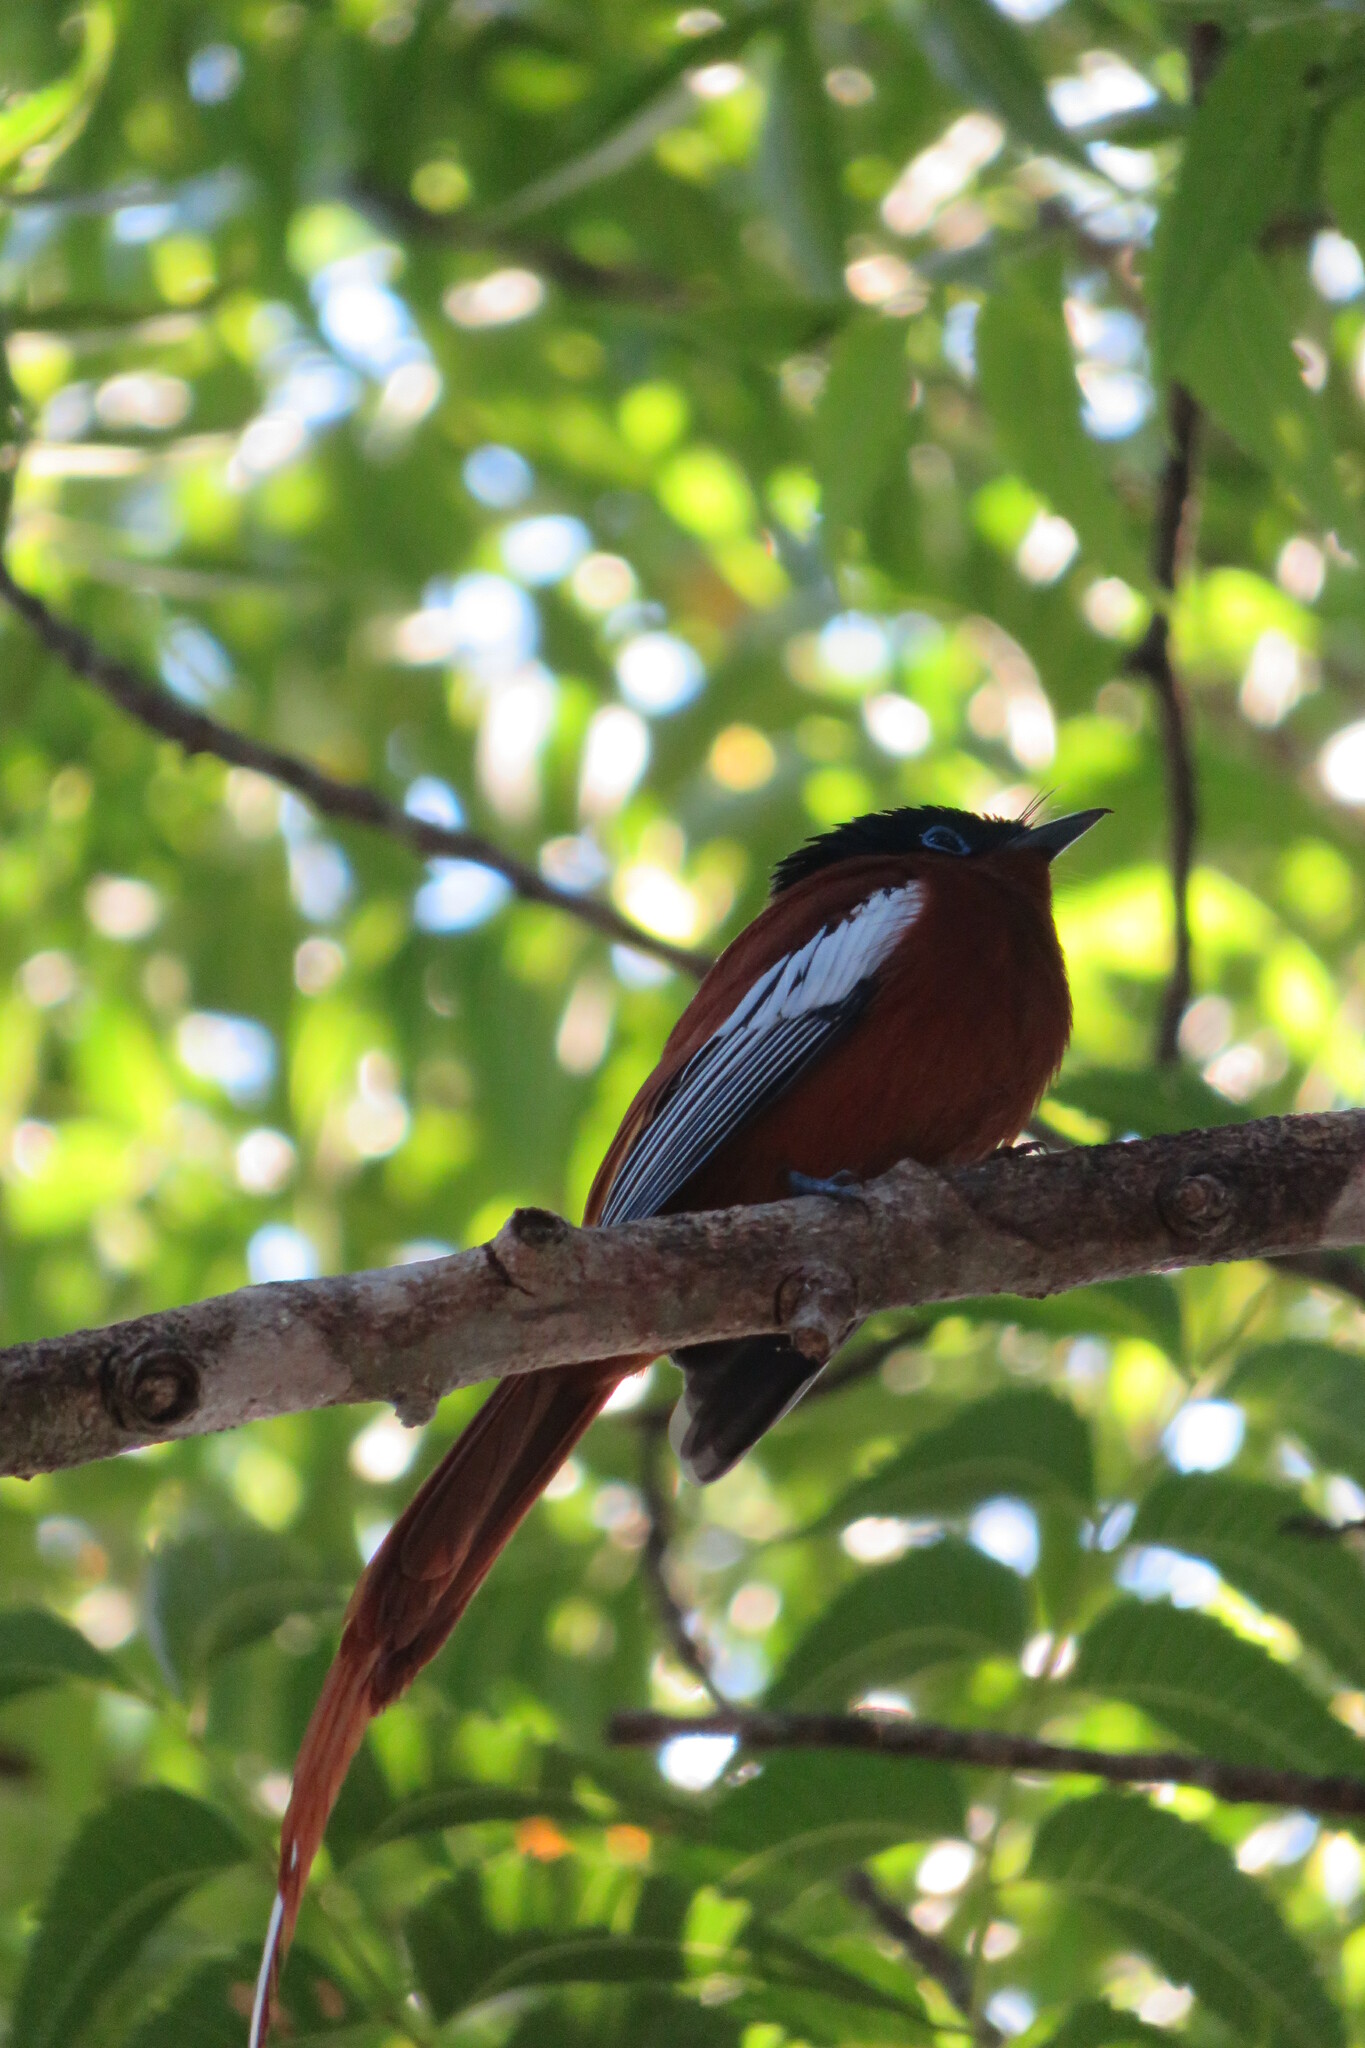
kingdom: Animalia
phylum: Chordata
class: Aves
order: Passeriformes
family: Monarchidae
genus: Terpsiphone
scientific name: Terpsiphone mutata
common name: Malagasy paradise flycatcher
